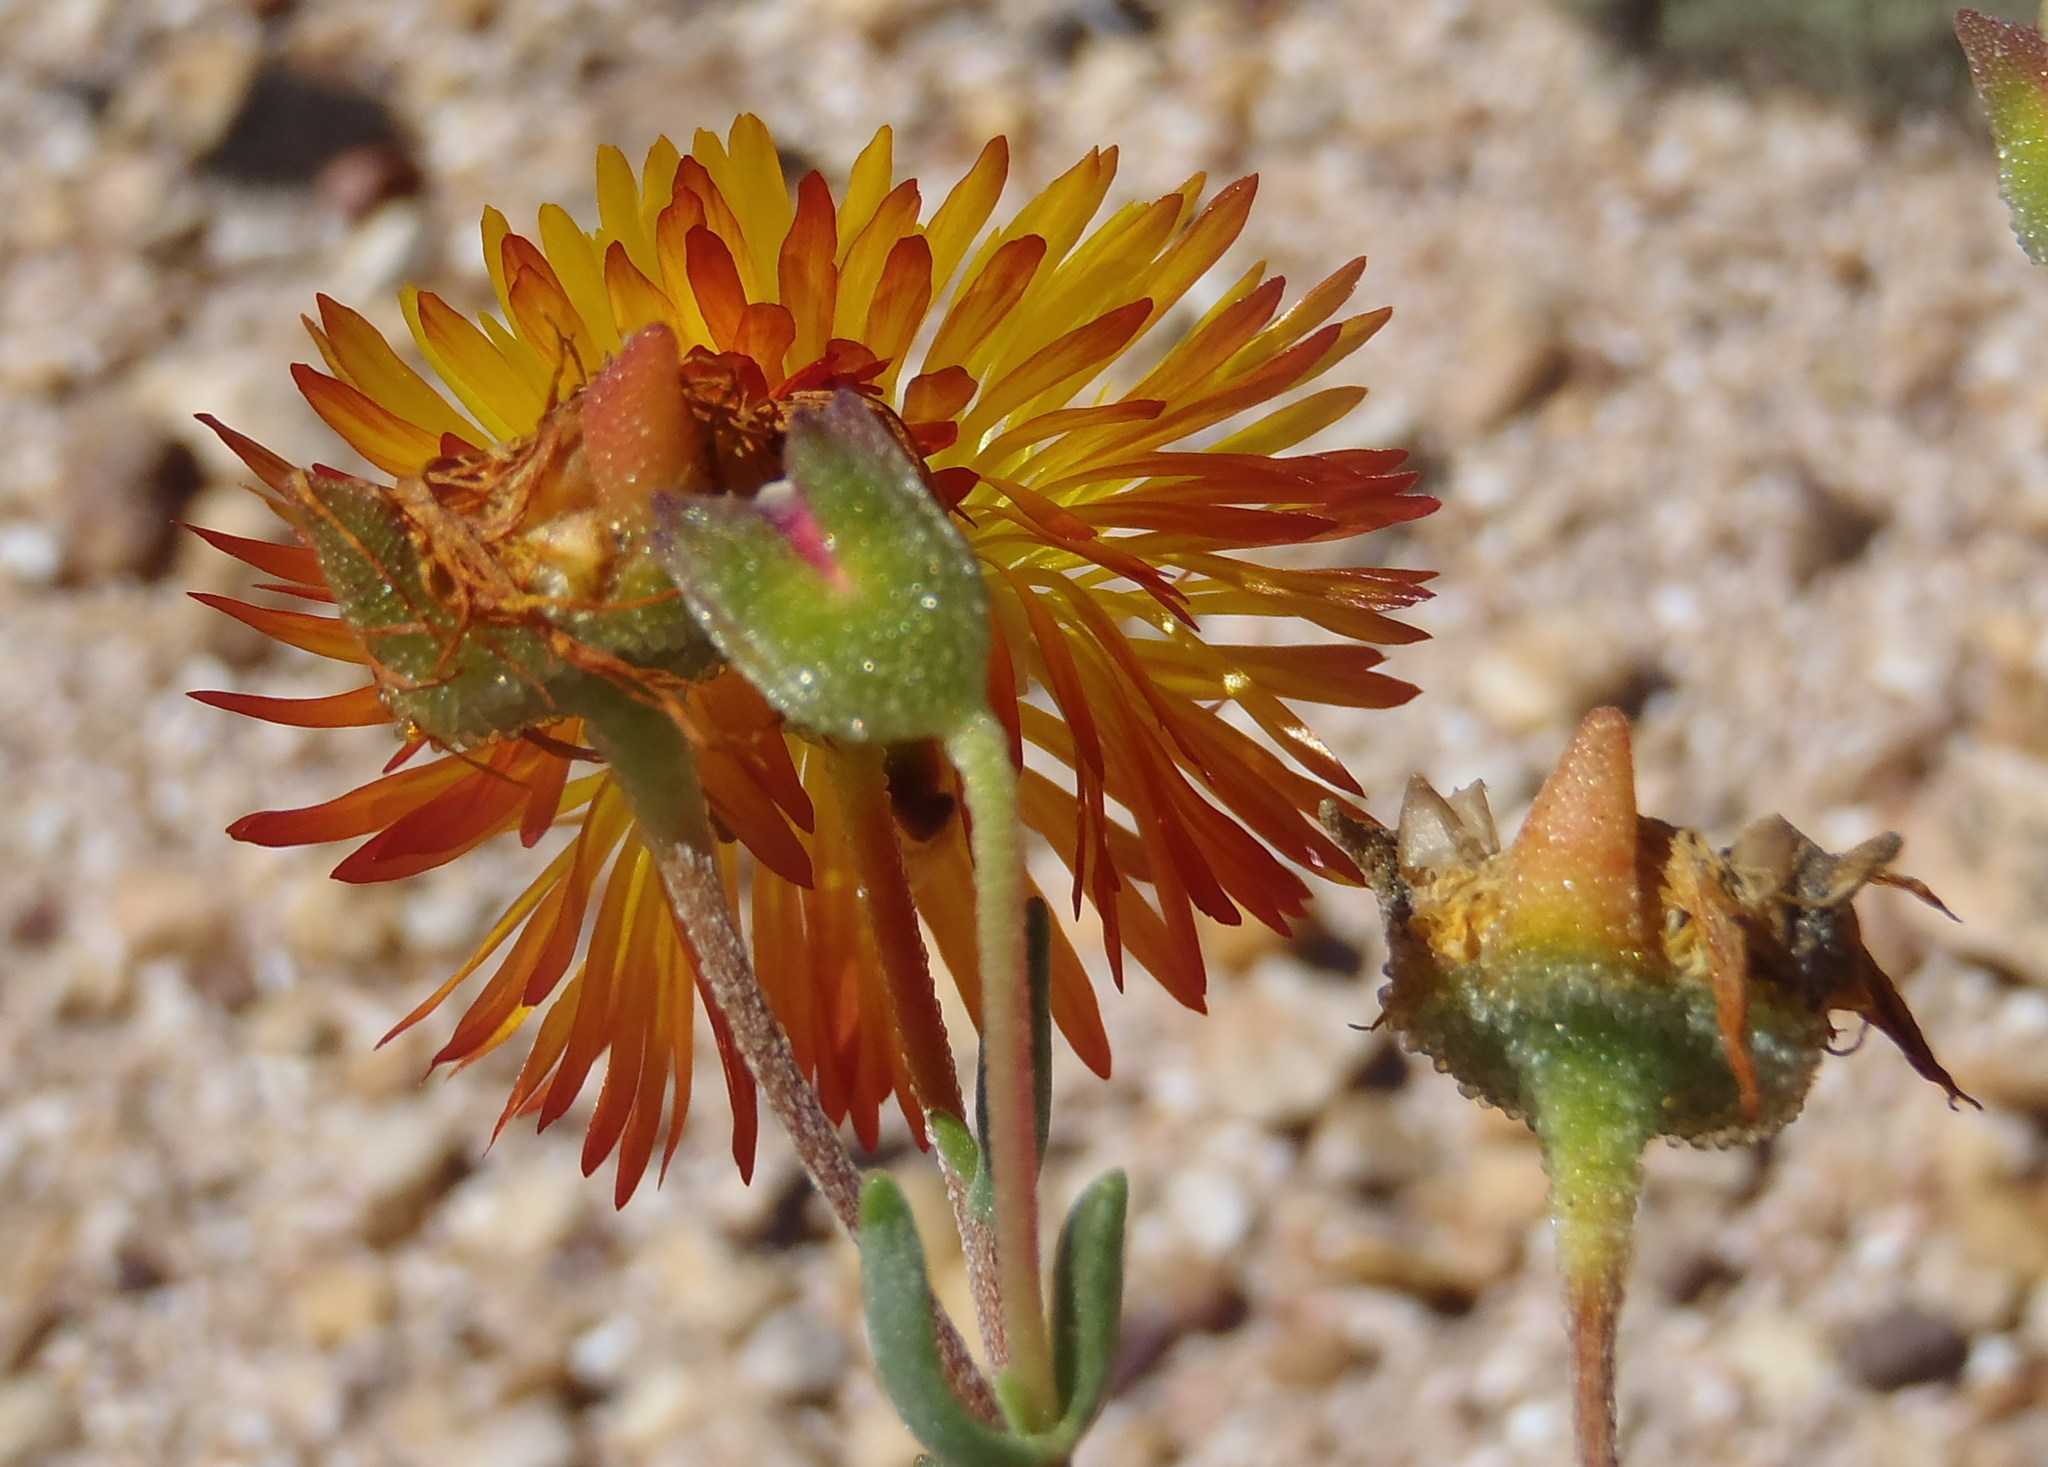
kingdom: Plantae
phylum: Tracheophyta
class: Magnoliopsida
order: Caryophyllales
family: Aizoaceae
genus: Drosanthemum
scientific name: Drosanthemum bicolor
